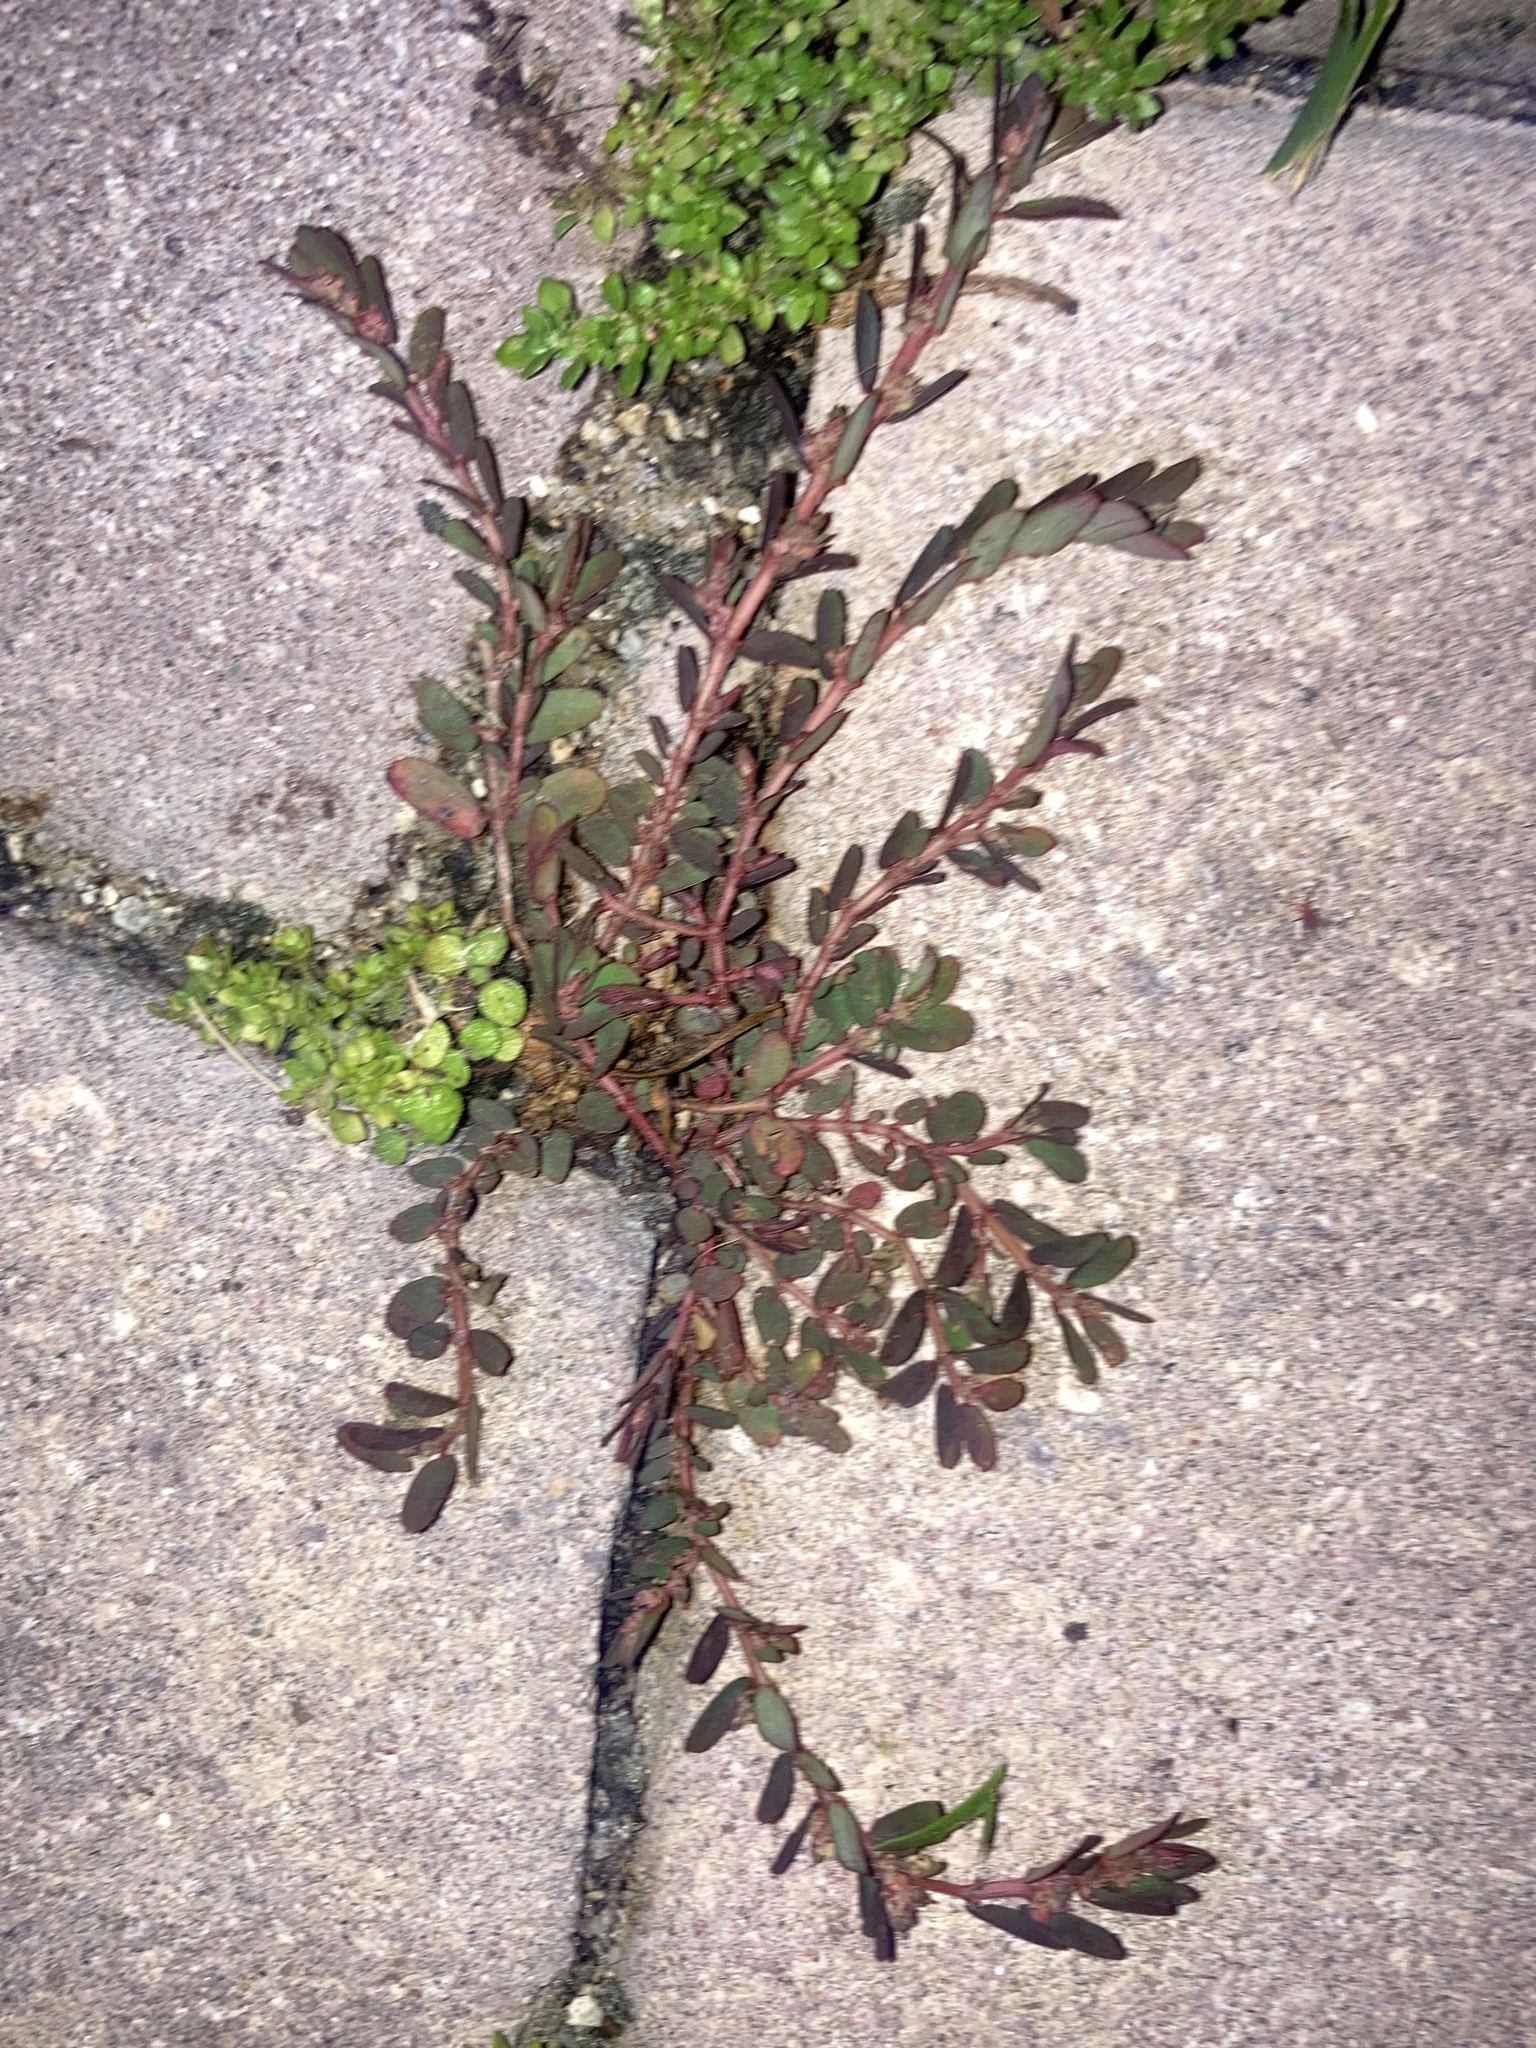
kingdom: Plantae
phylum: Tracheophyta
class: Magnoliopsida
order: Malpighiales
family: Euphorbiaceae
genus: Euphorbia
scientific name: Euphorbia thymifolia
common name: Gulf sandmat
